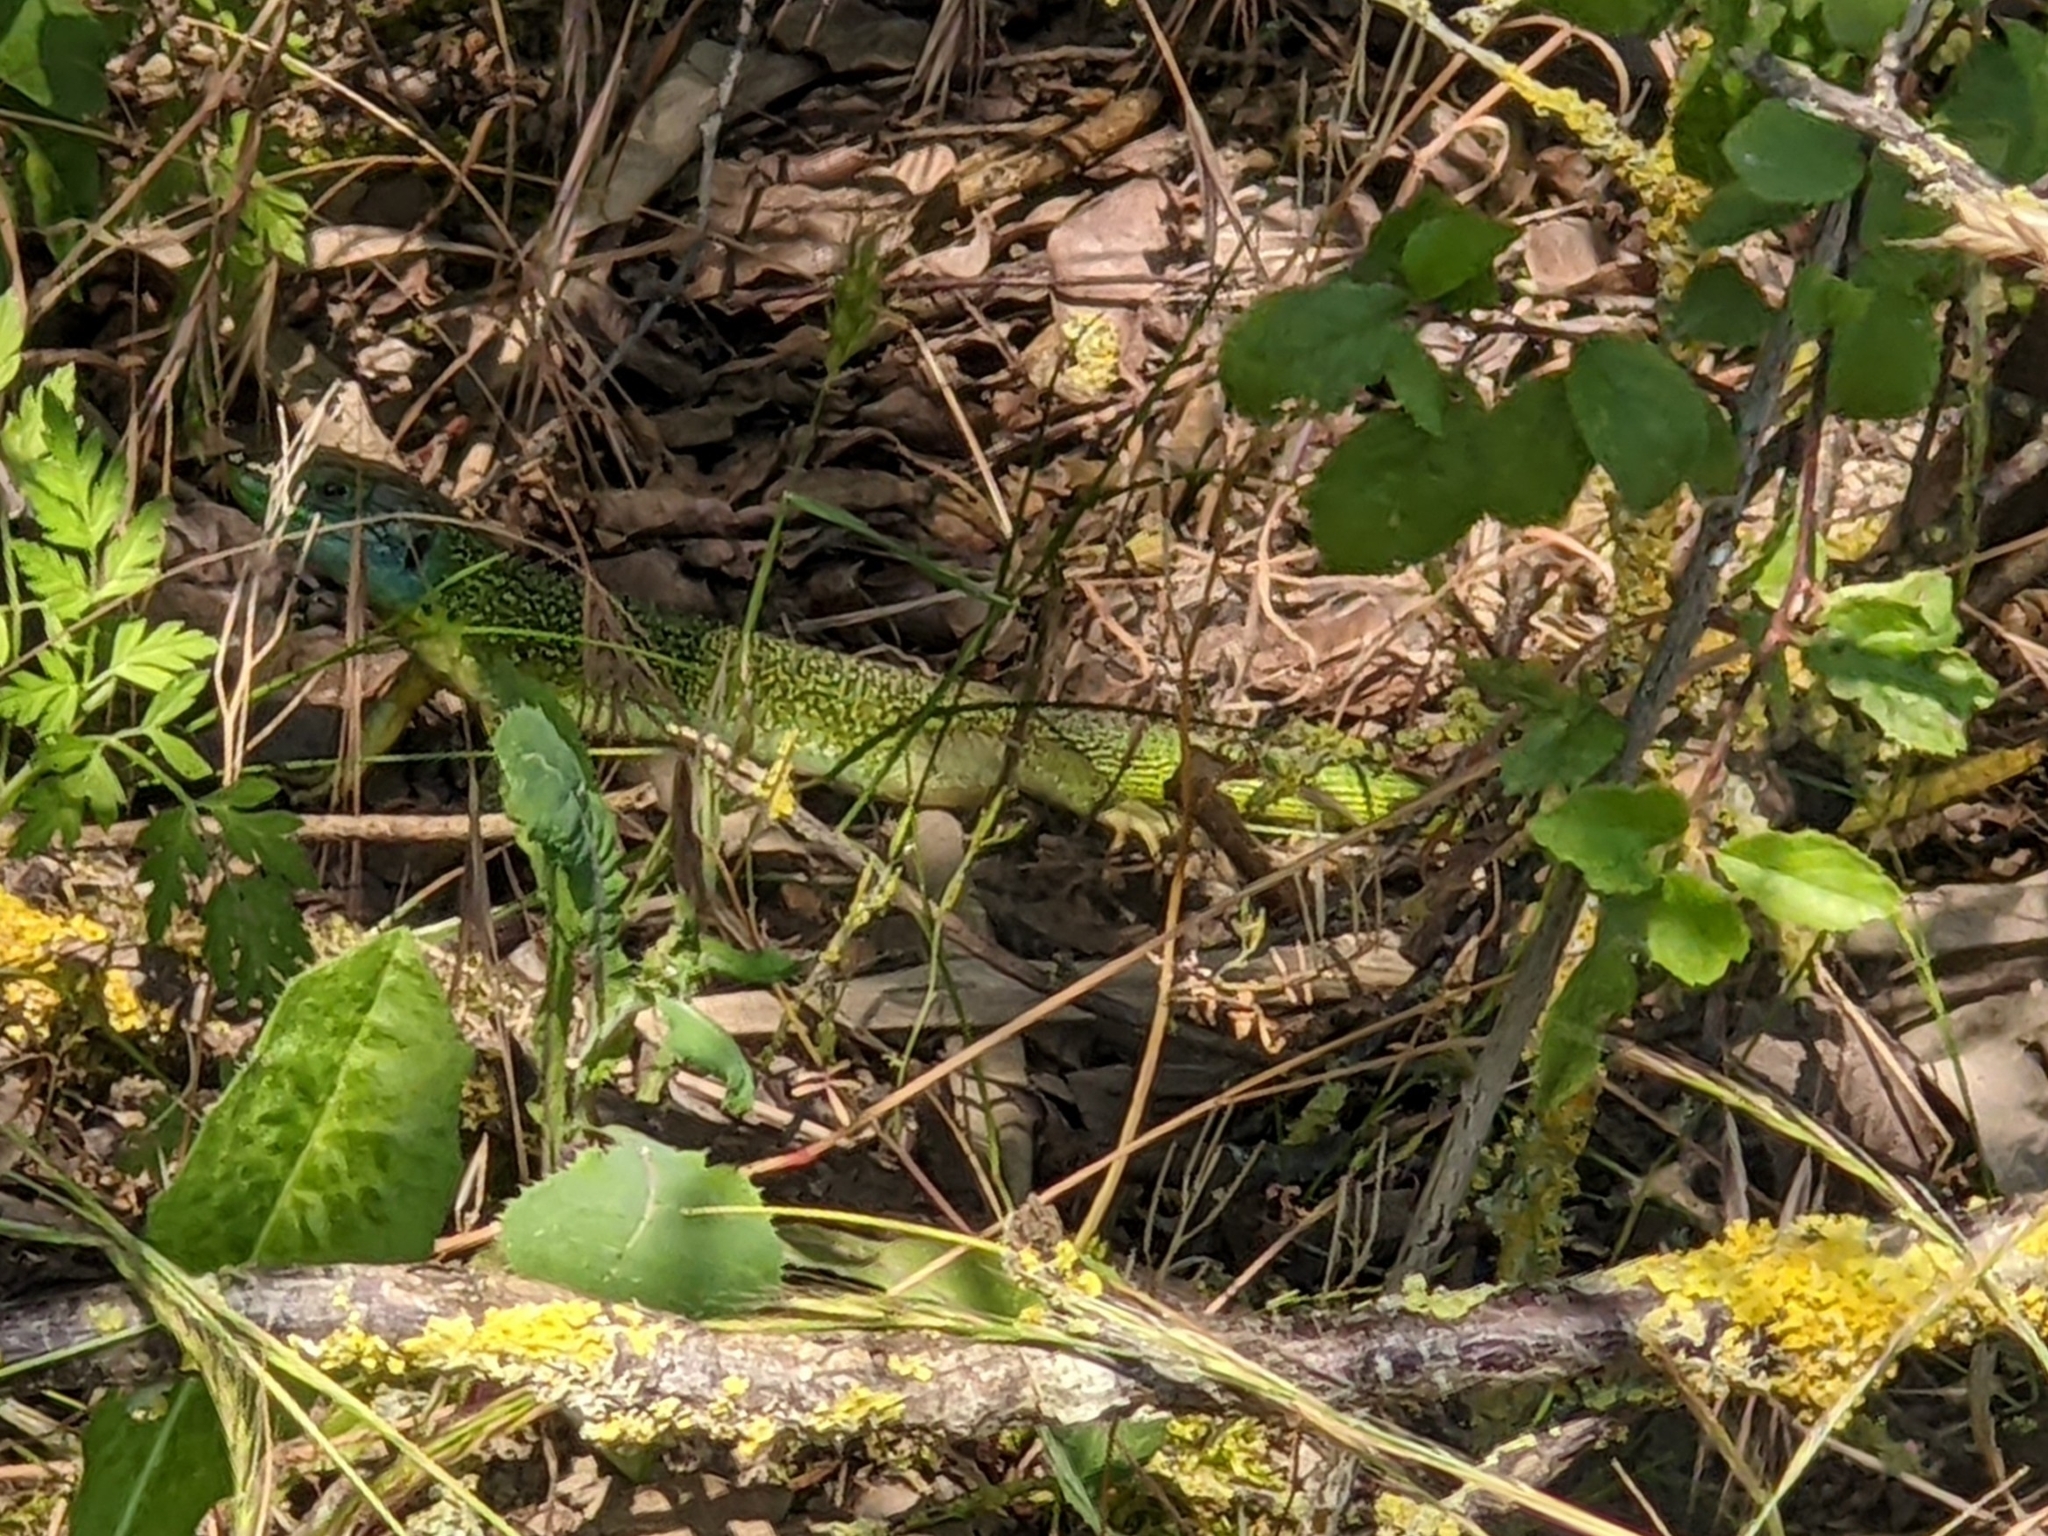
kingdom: Animalia
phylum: Chordata
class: Squamata
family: Lacertidae
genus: Lacerta
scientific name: Lacerta bilineata
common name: Western green lizard
